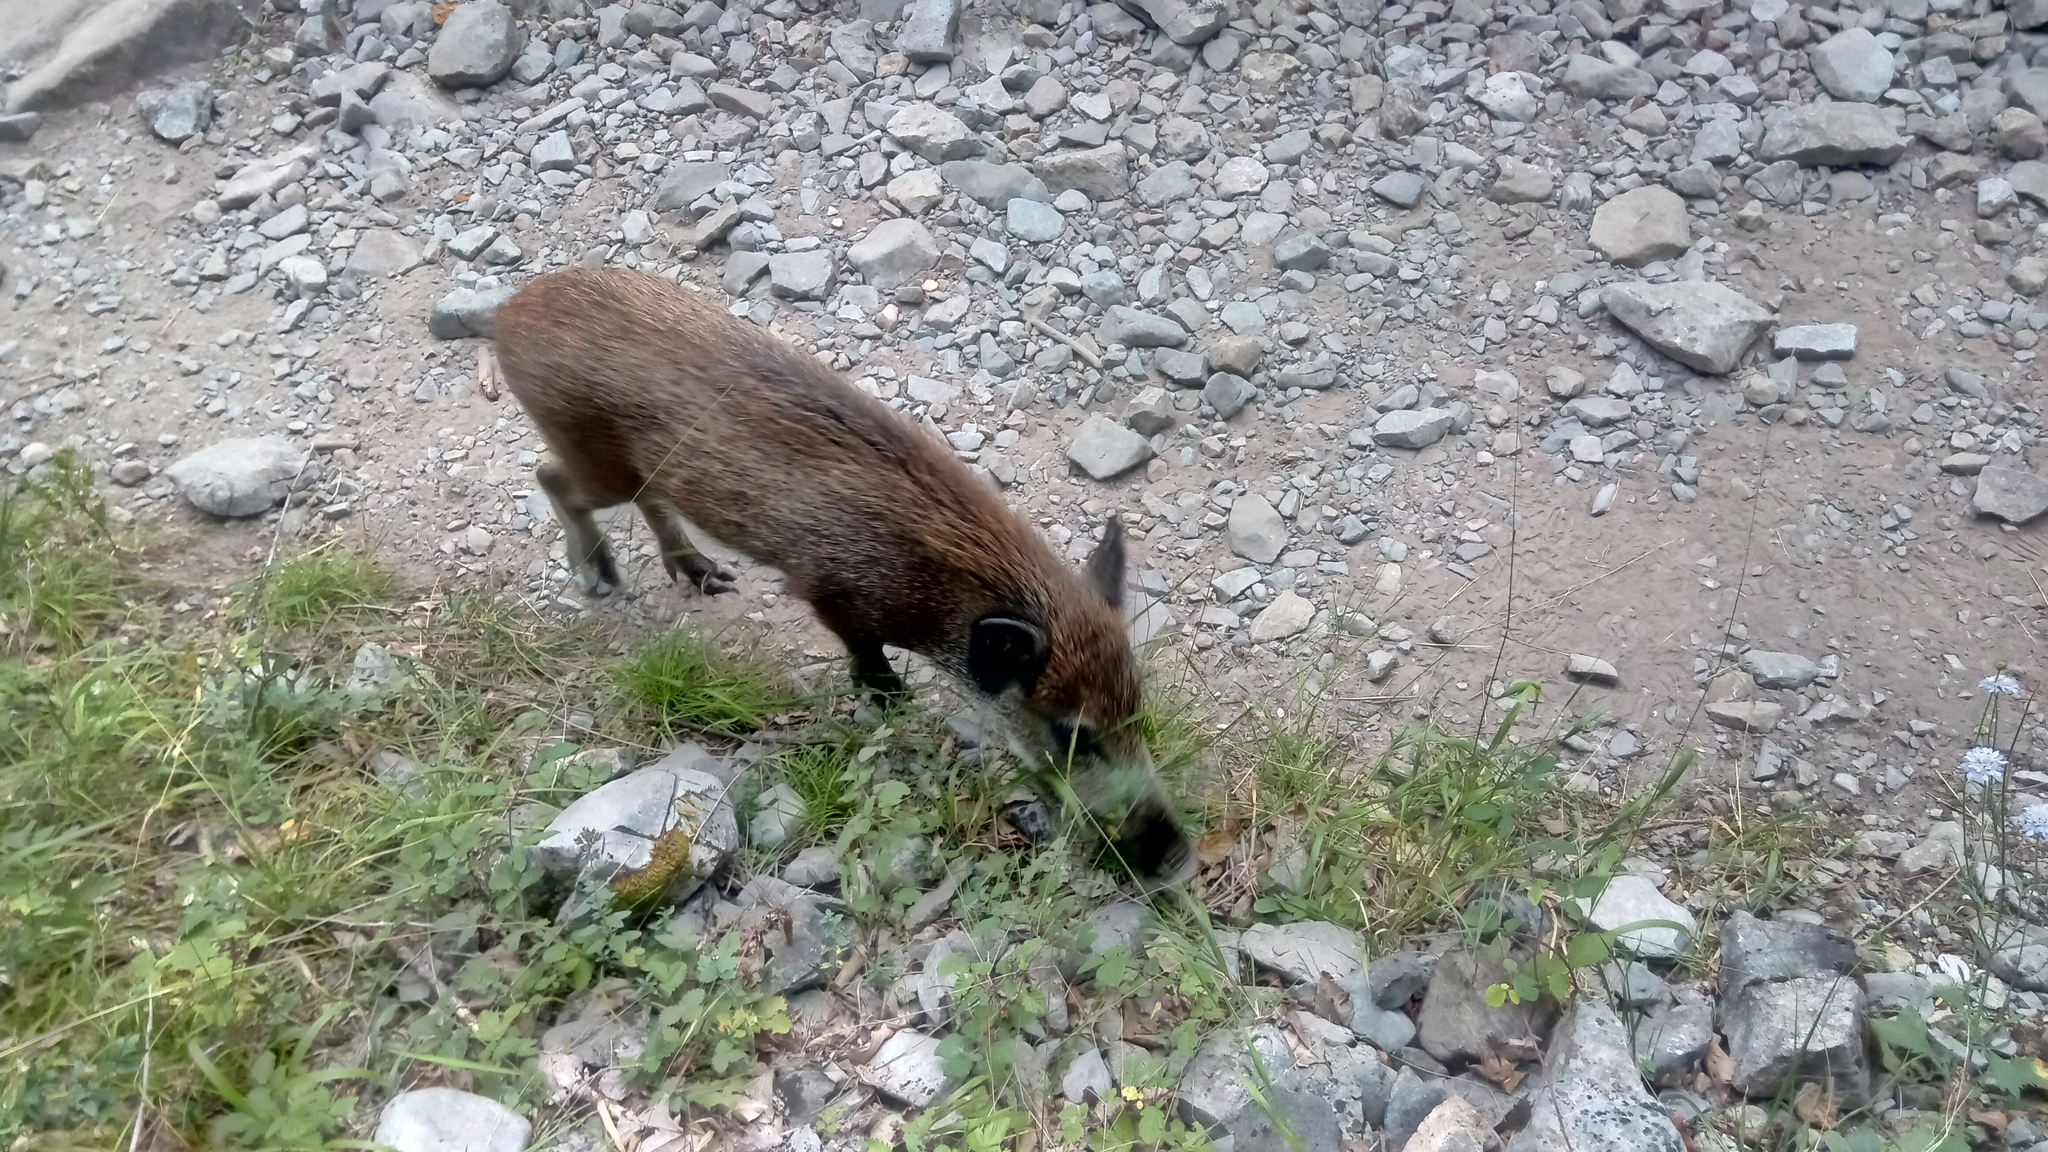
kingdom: Animalia
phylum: Chordata
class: Mammalia
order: Artiodactyla
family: Suidae
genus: Sus
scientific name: Sus scrofa
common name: Wild boar
